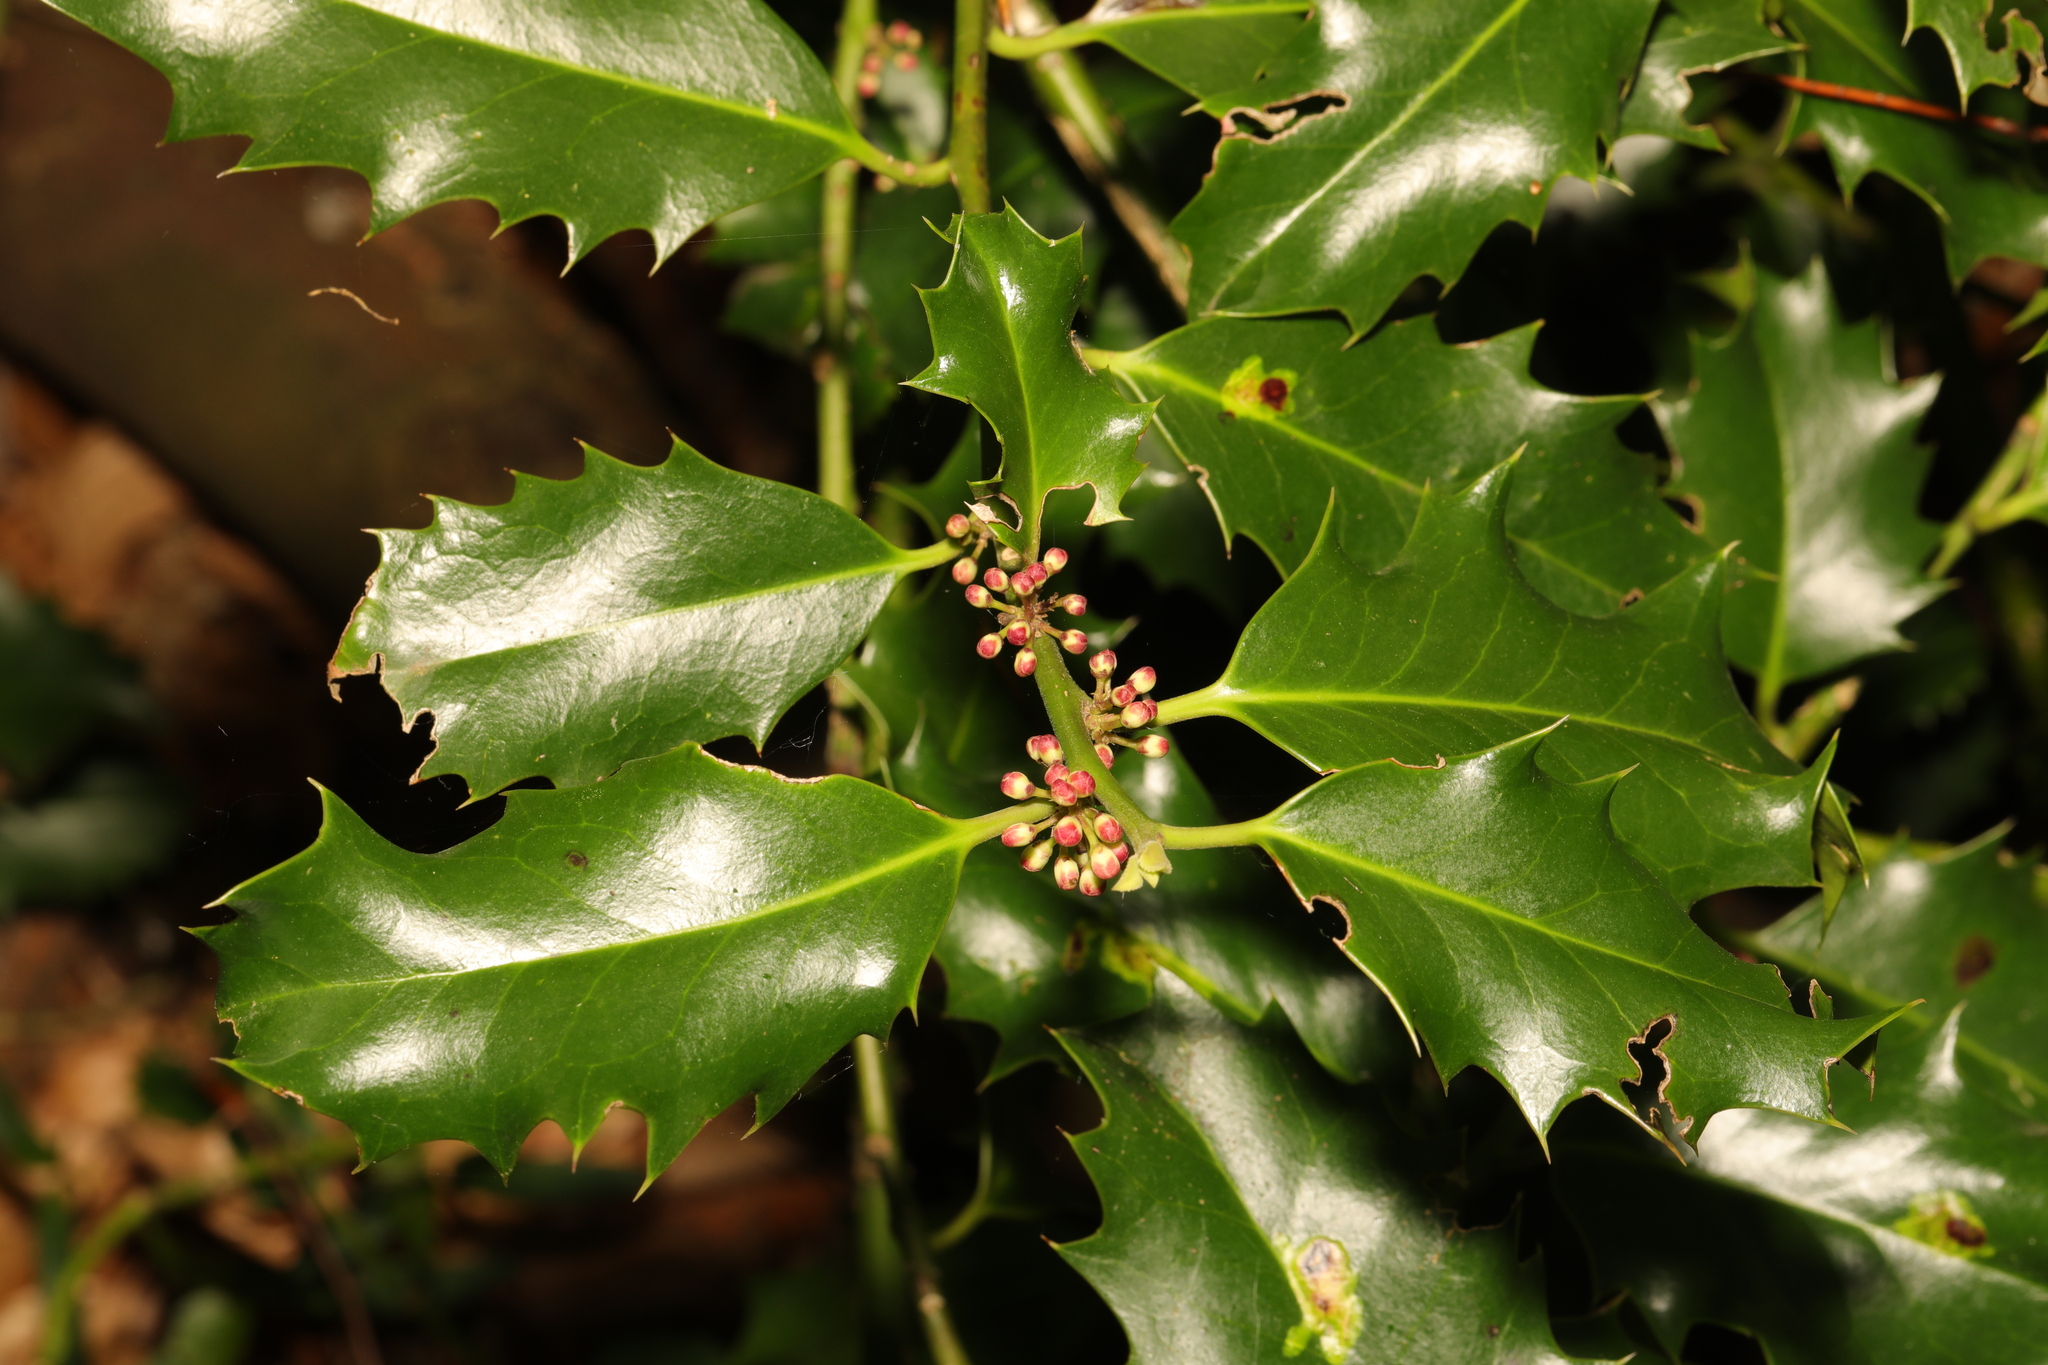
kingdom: Plantae
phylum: Tracheophyta
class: Magnoliopsida
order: Aquifoliales
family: Aquifoliaceae
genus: Ilex
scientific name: Ilex aquifolium
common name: English holly
